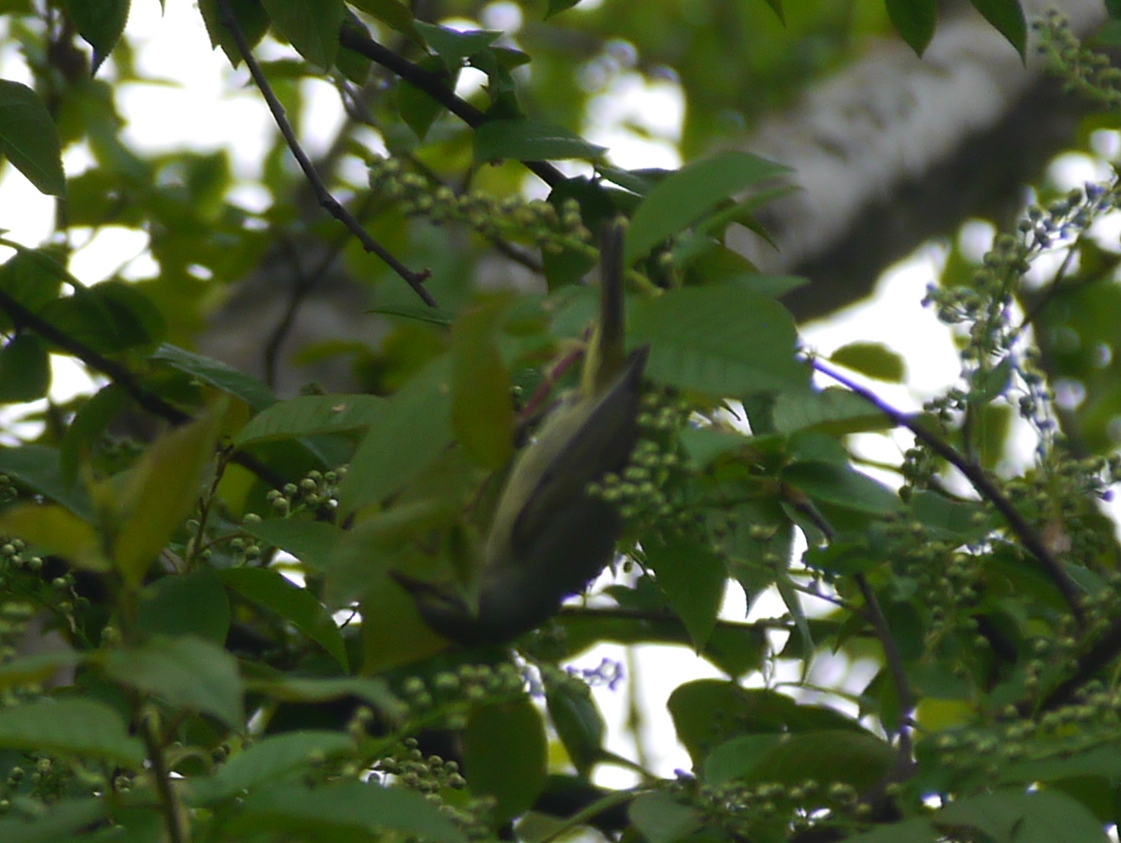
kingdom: Animalia
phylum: Chordata
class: Aves
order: Passeriformes
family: Parulidae
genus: Leiothlypis
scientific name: Leiothlypis celata
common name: Orange-crowned warbler
